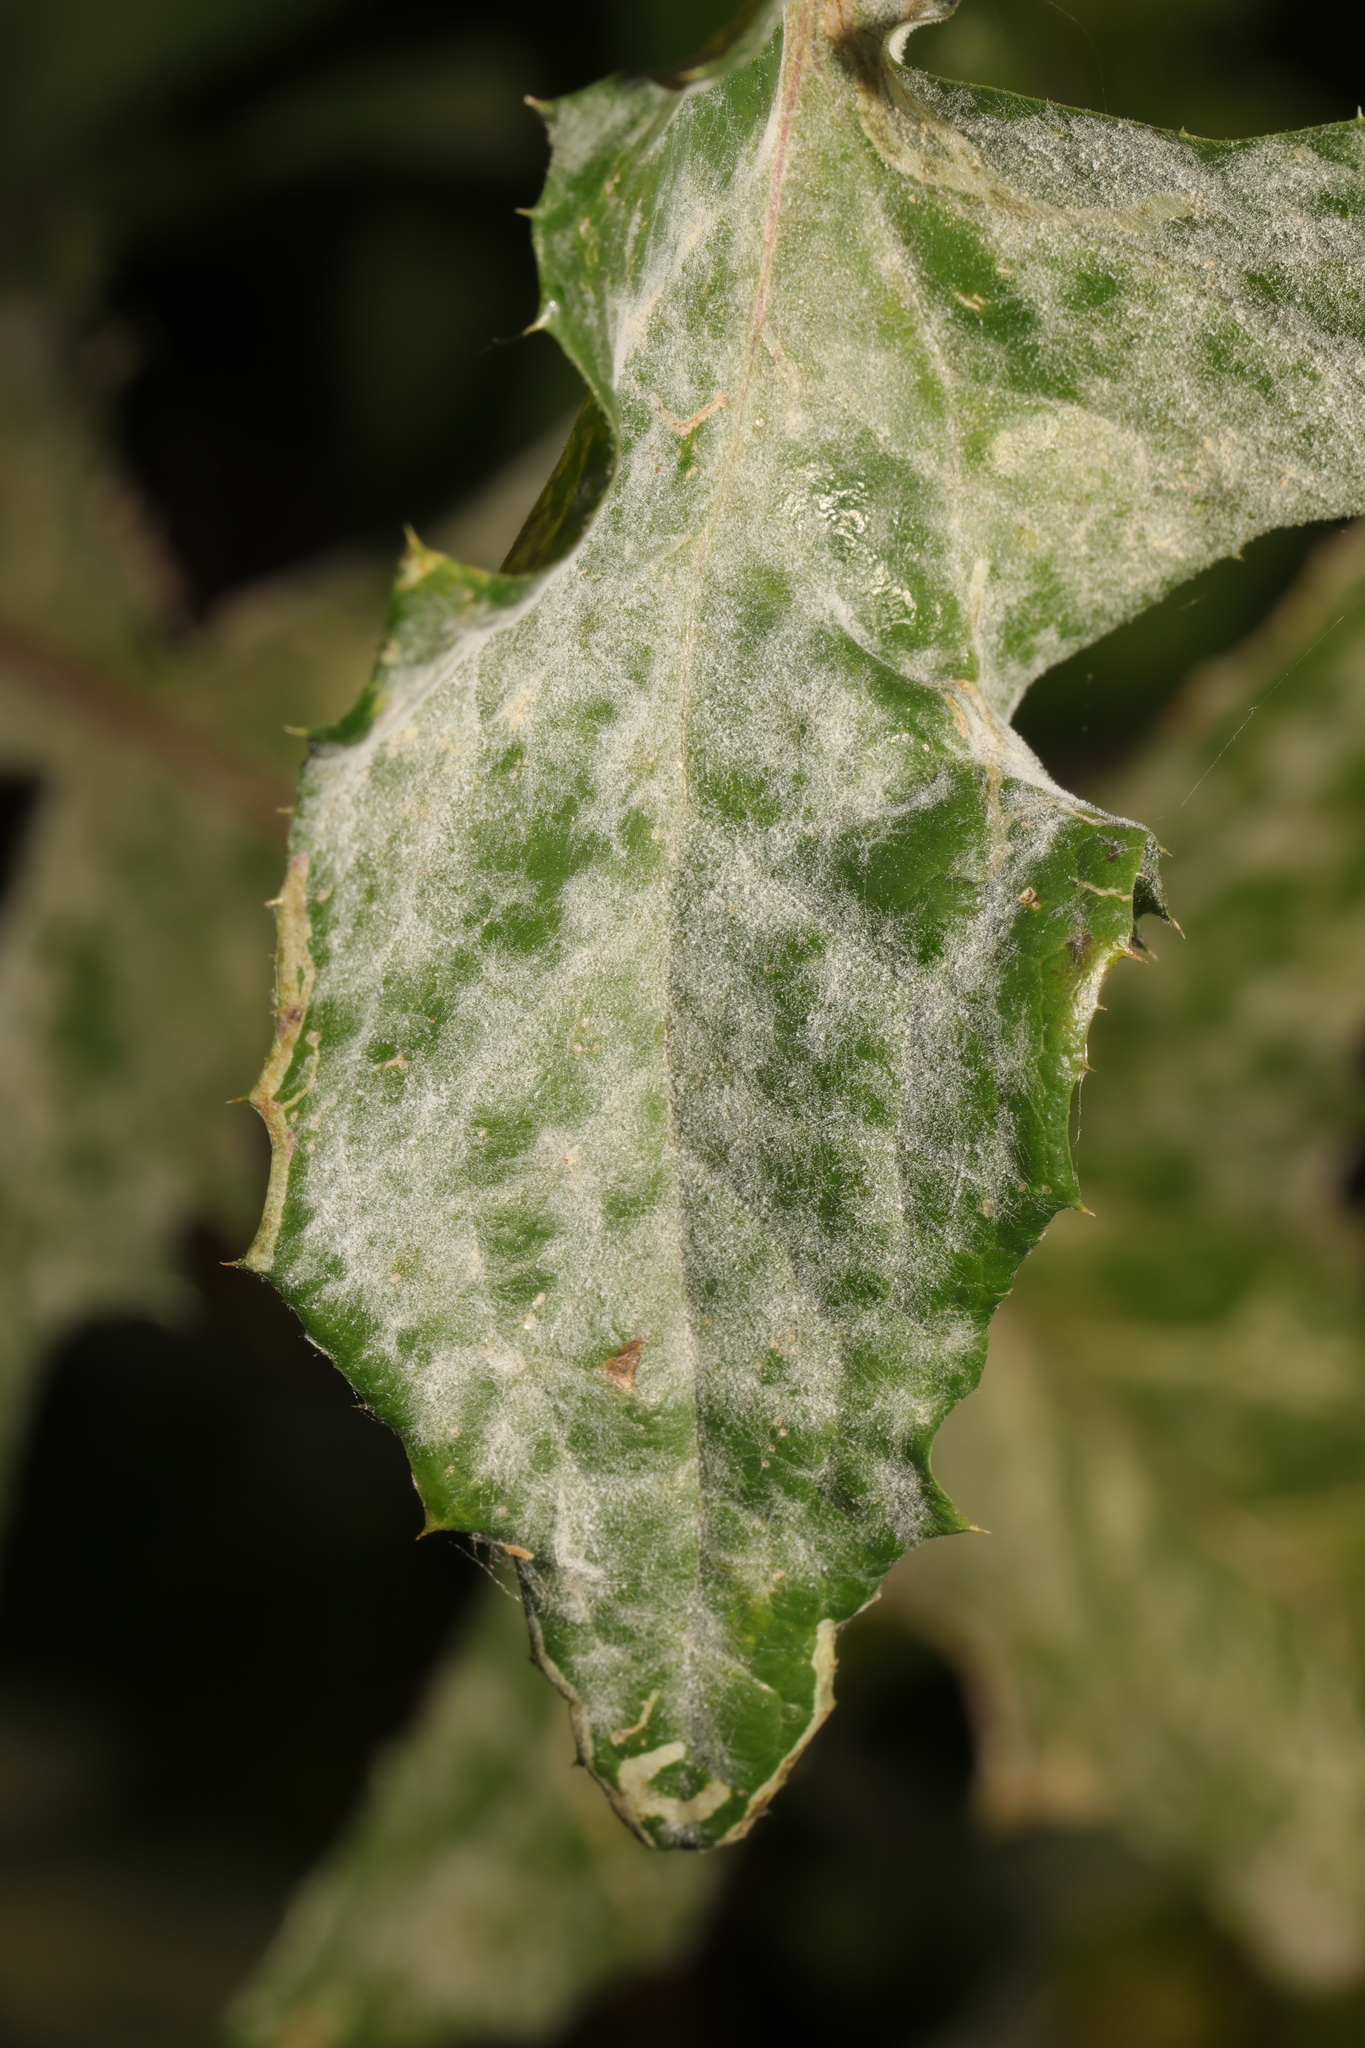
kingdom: Fungi
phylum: Ascomycota
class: Leotiomycetes
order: Helotiales
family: Erysiphaceae
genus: Golovinomyces
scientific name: Golovinomyces hieraciorum
